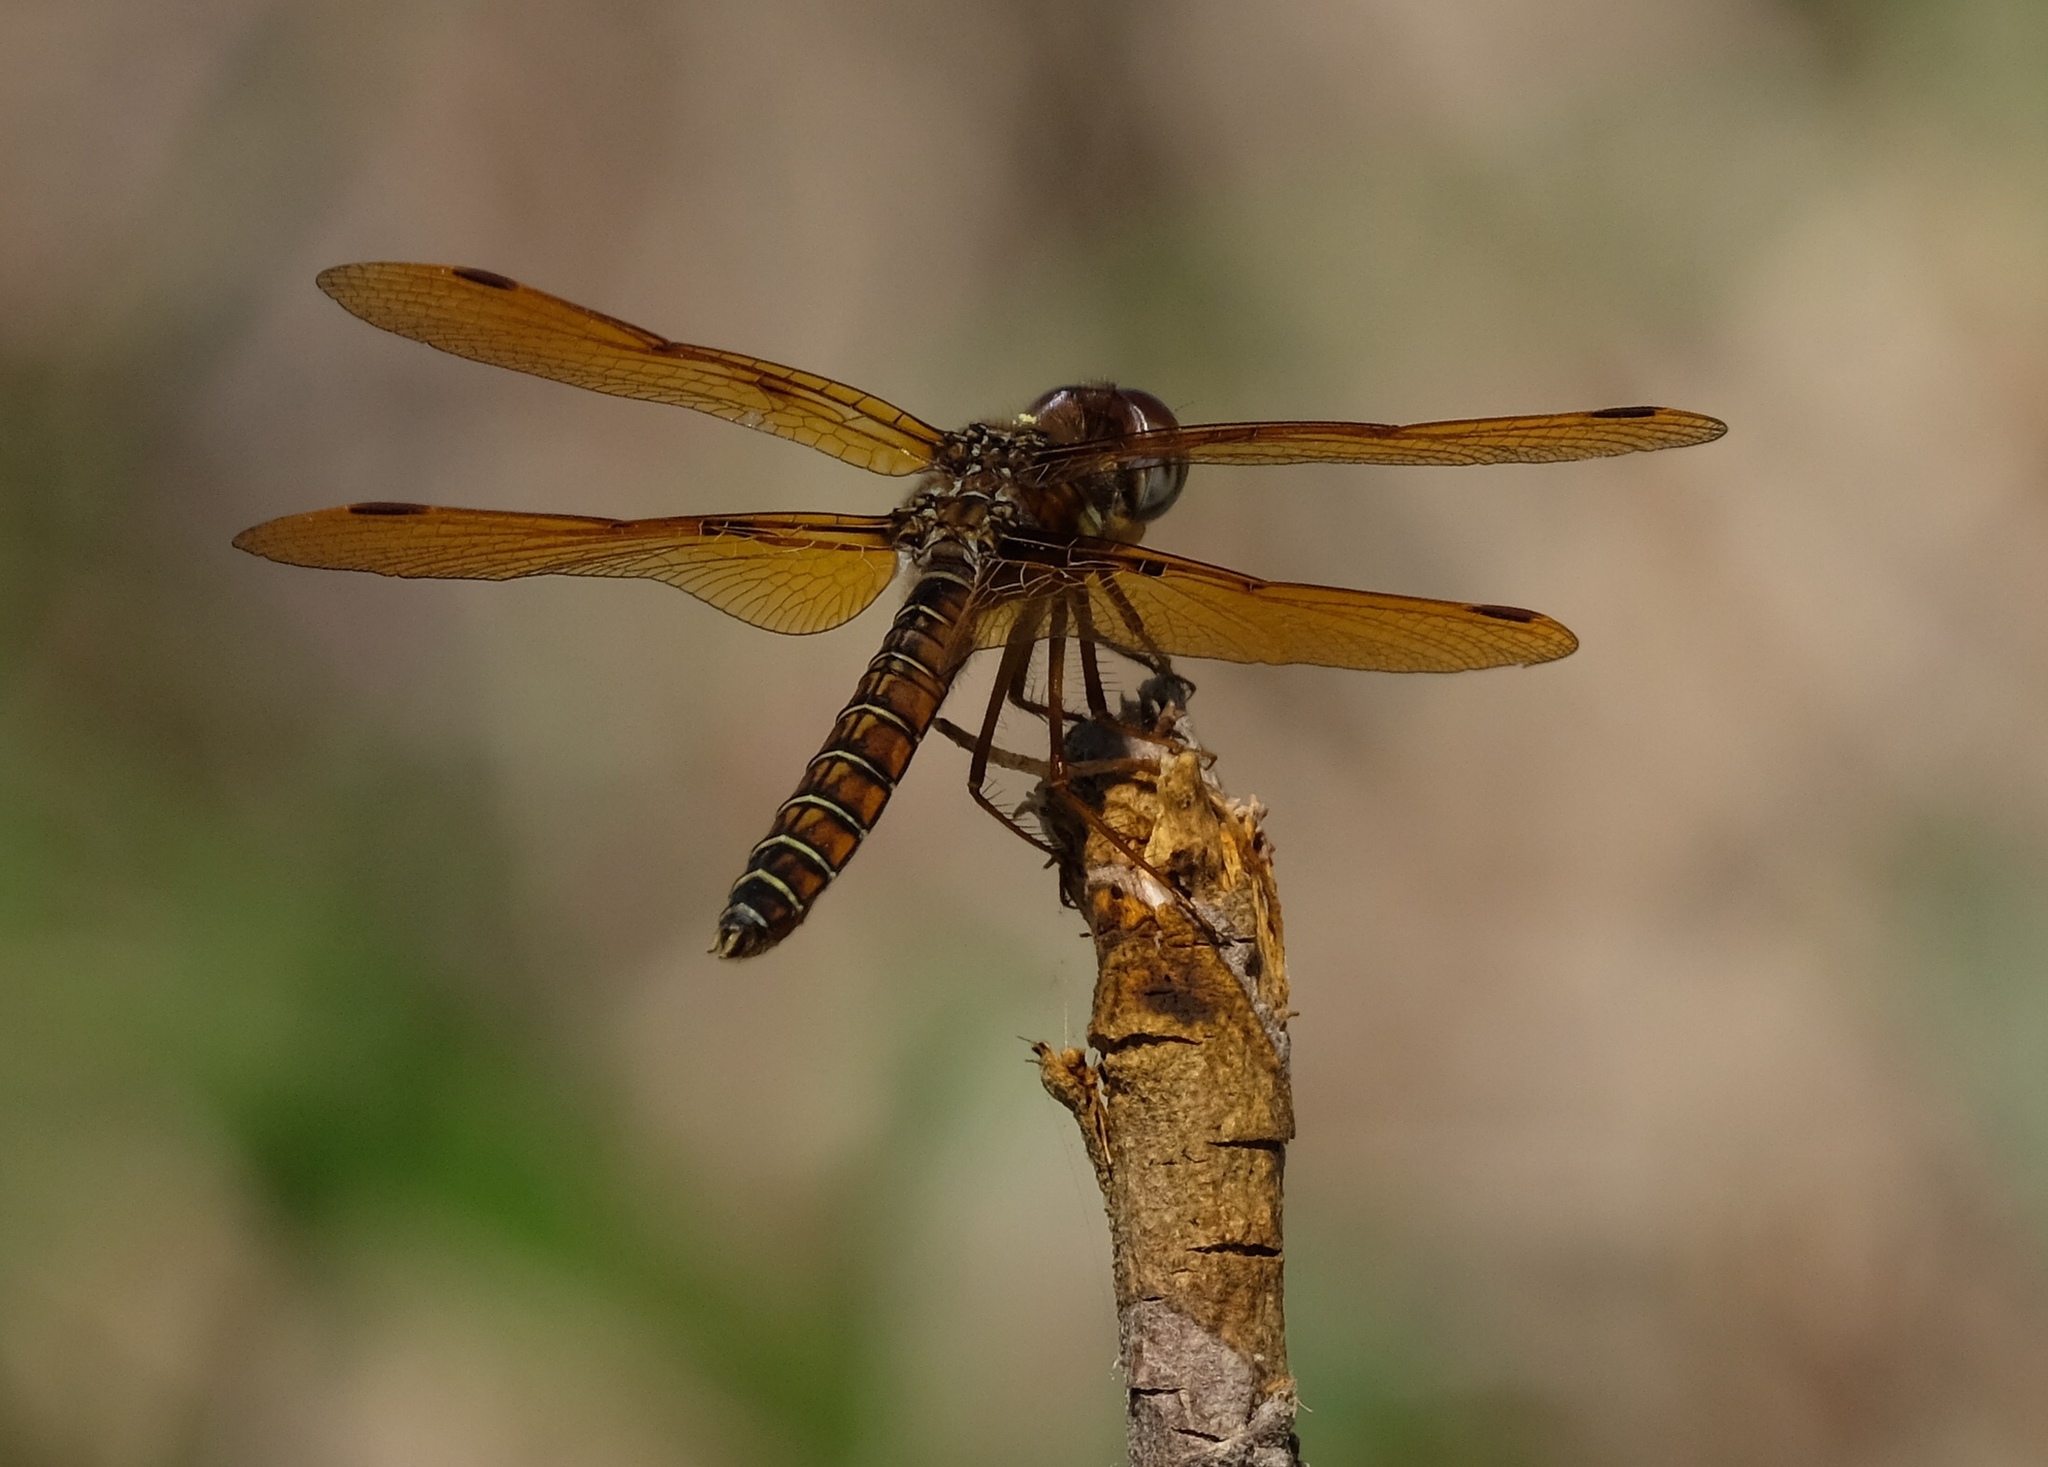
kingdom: Animalia
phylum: Arthropoda
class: Insecta
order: Odonata
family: Libellulidae
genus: Perithemis
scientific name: Perithemis tenera
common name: Eastern amberwing
